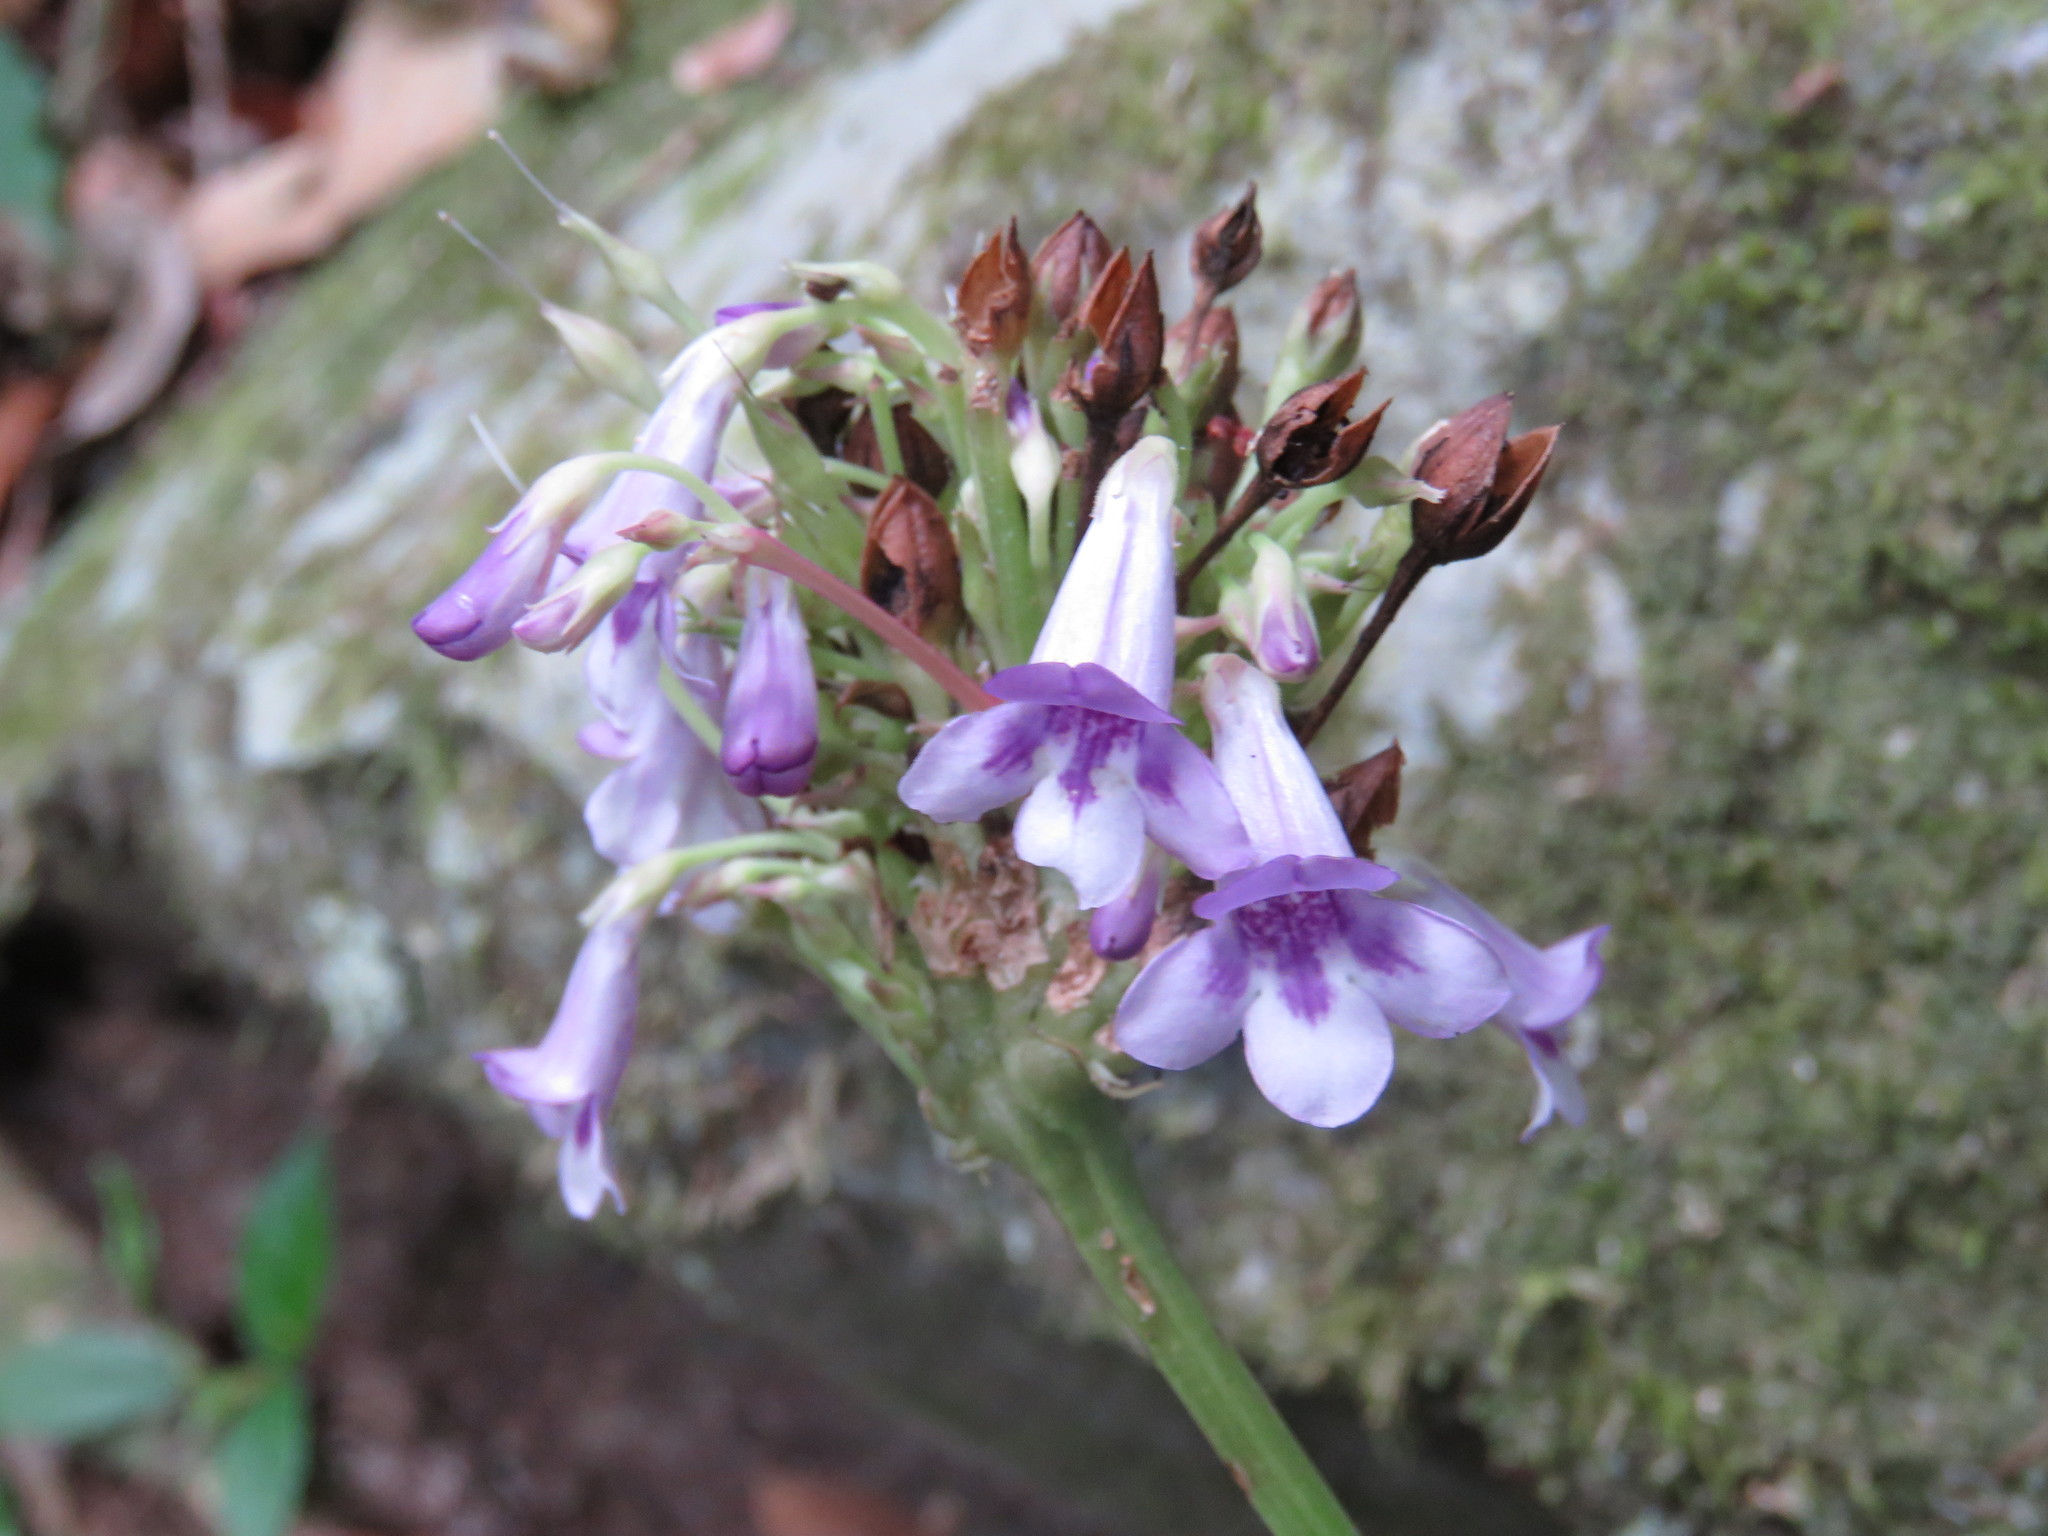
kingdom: Plantae
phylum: Tracheophyta
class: Magnoliopsida
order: Lamiales
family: Plantaginaceae
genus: Tetranema
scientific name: Tetranema roseum
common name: Mexican-violet
